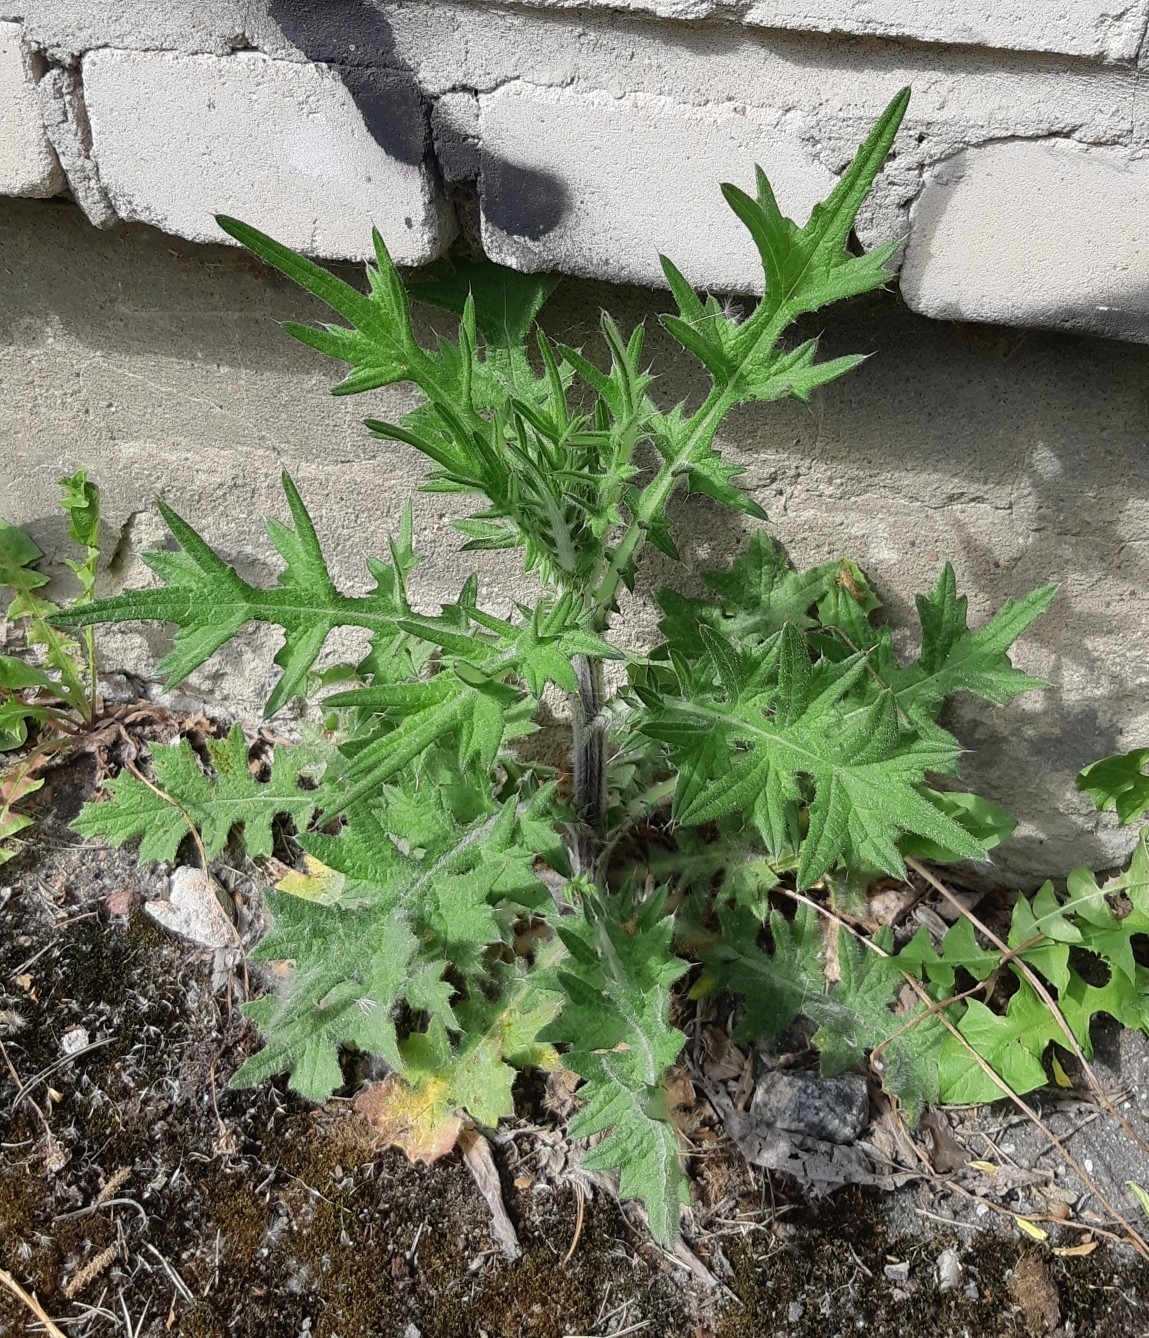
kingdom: Plantae
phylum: Tracheophyta
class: Magnoliopsida
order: Asterales
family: Asteraceae
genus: Cirsium
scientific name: Cirsium vulgare
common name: Bull thistle
